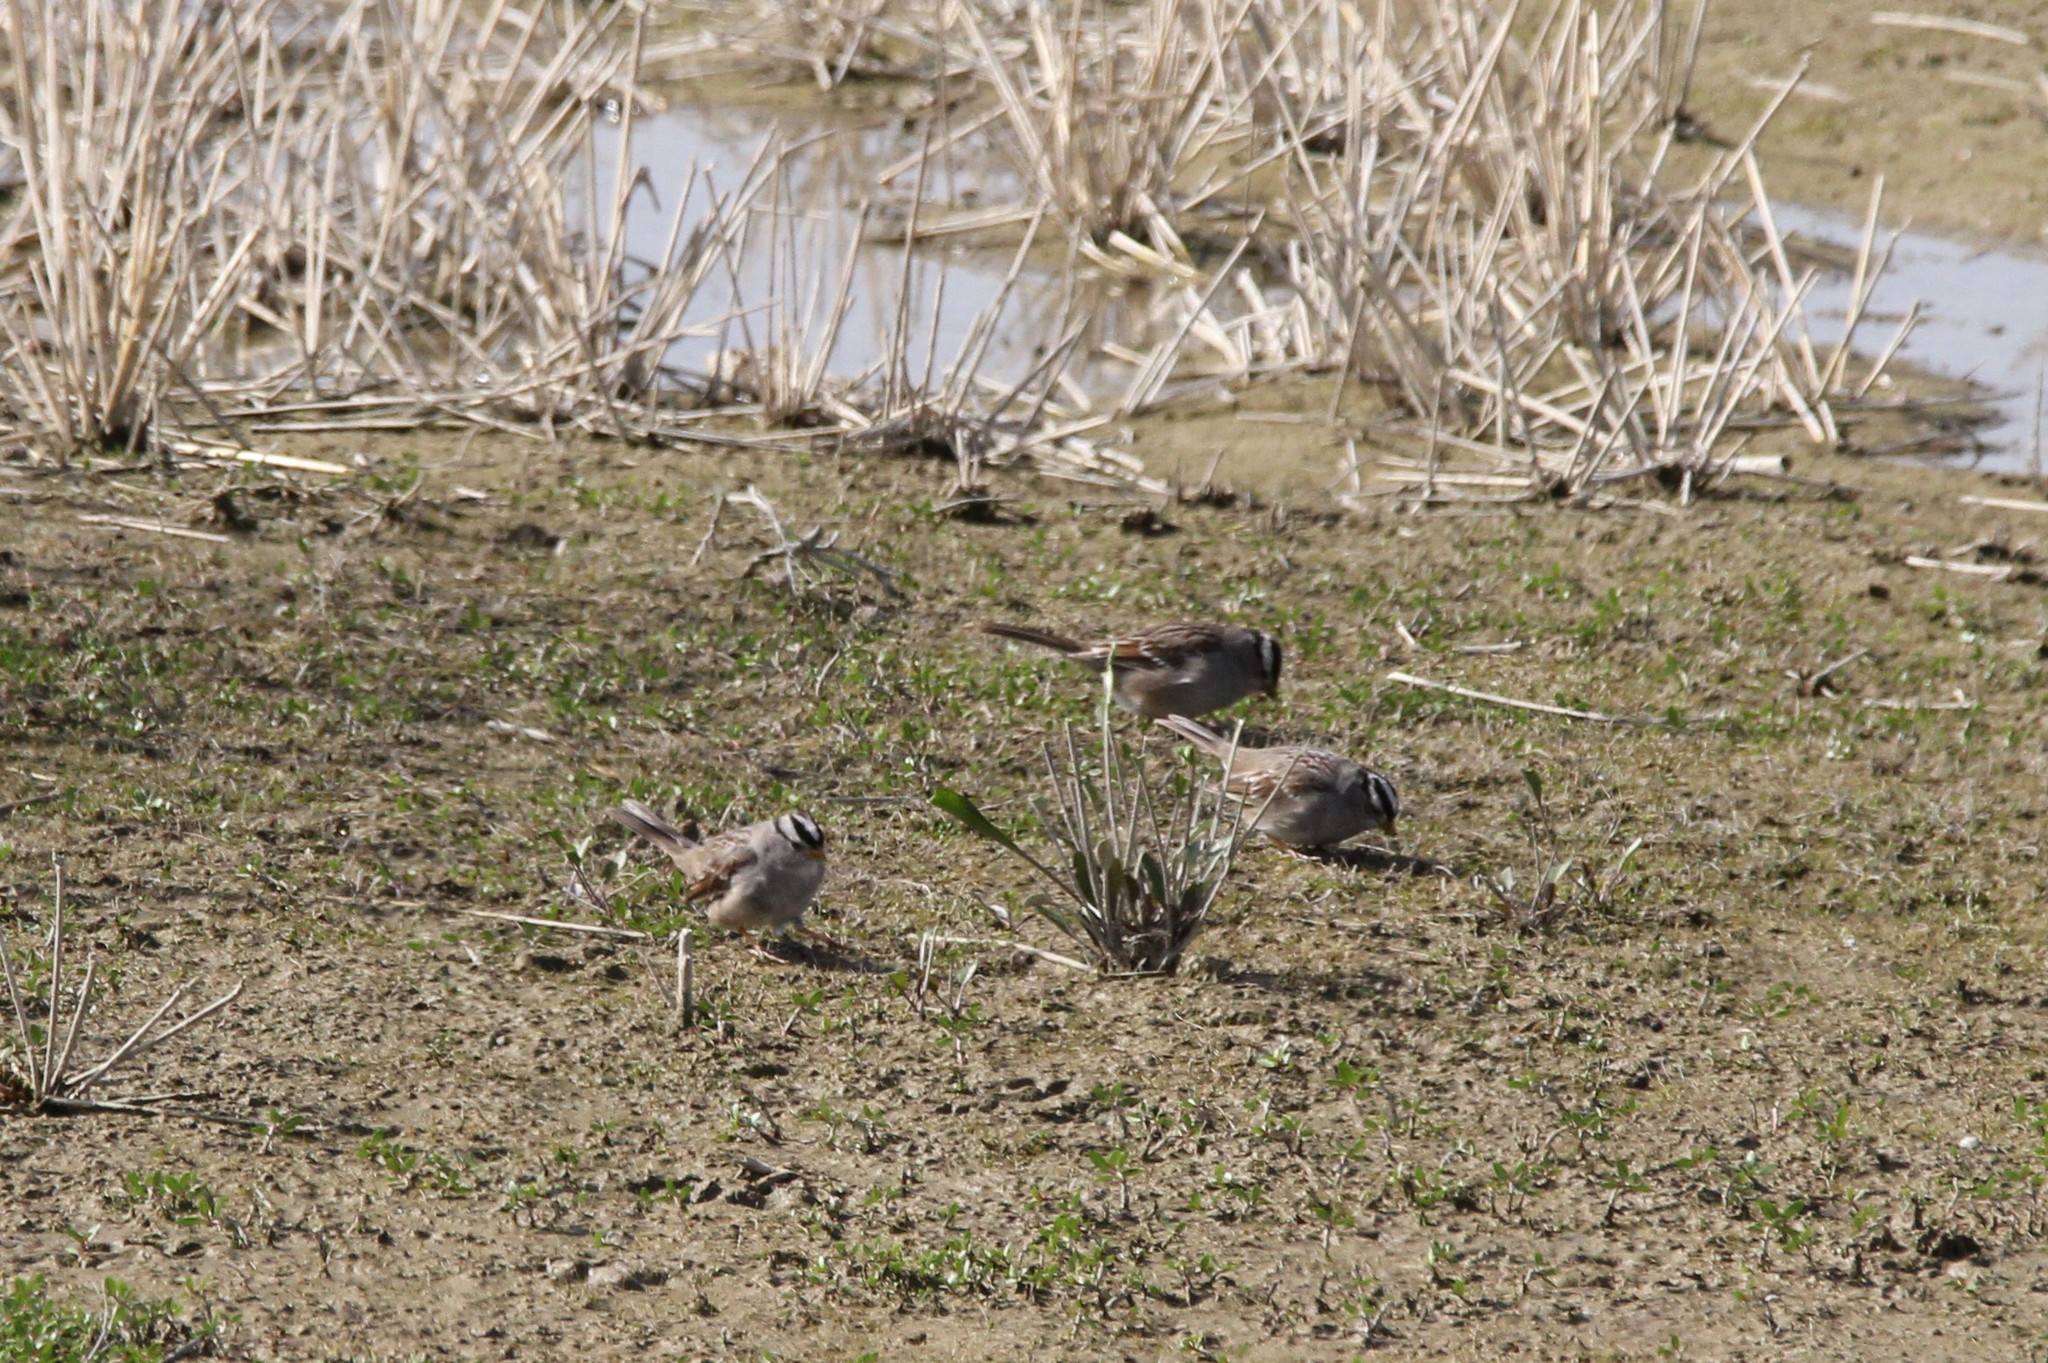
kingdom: Animalia
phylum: Chordata
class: Aves
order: Passeriformes
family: Passerellidae
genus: Zonotrichia
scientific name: Zonotrichia leucophrys
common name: White-crowned sparrow
